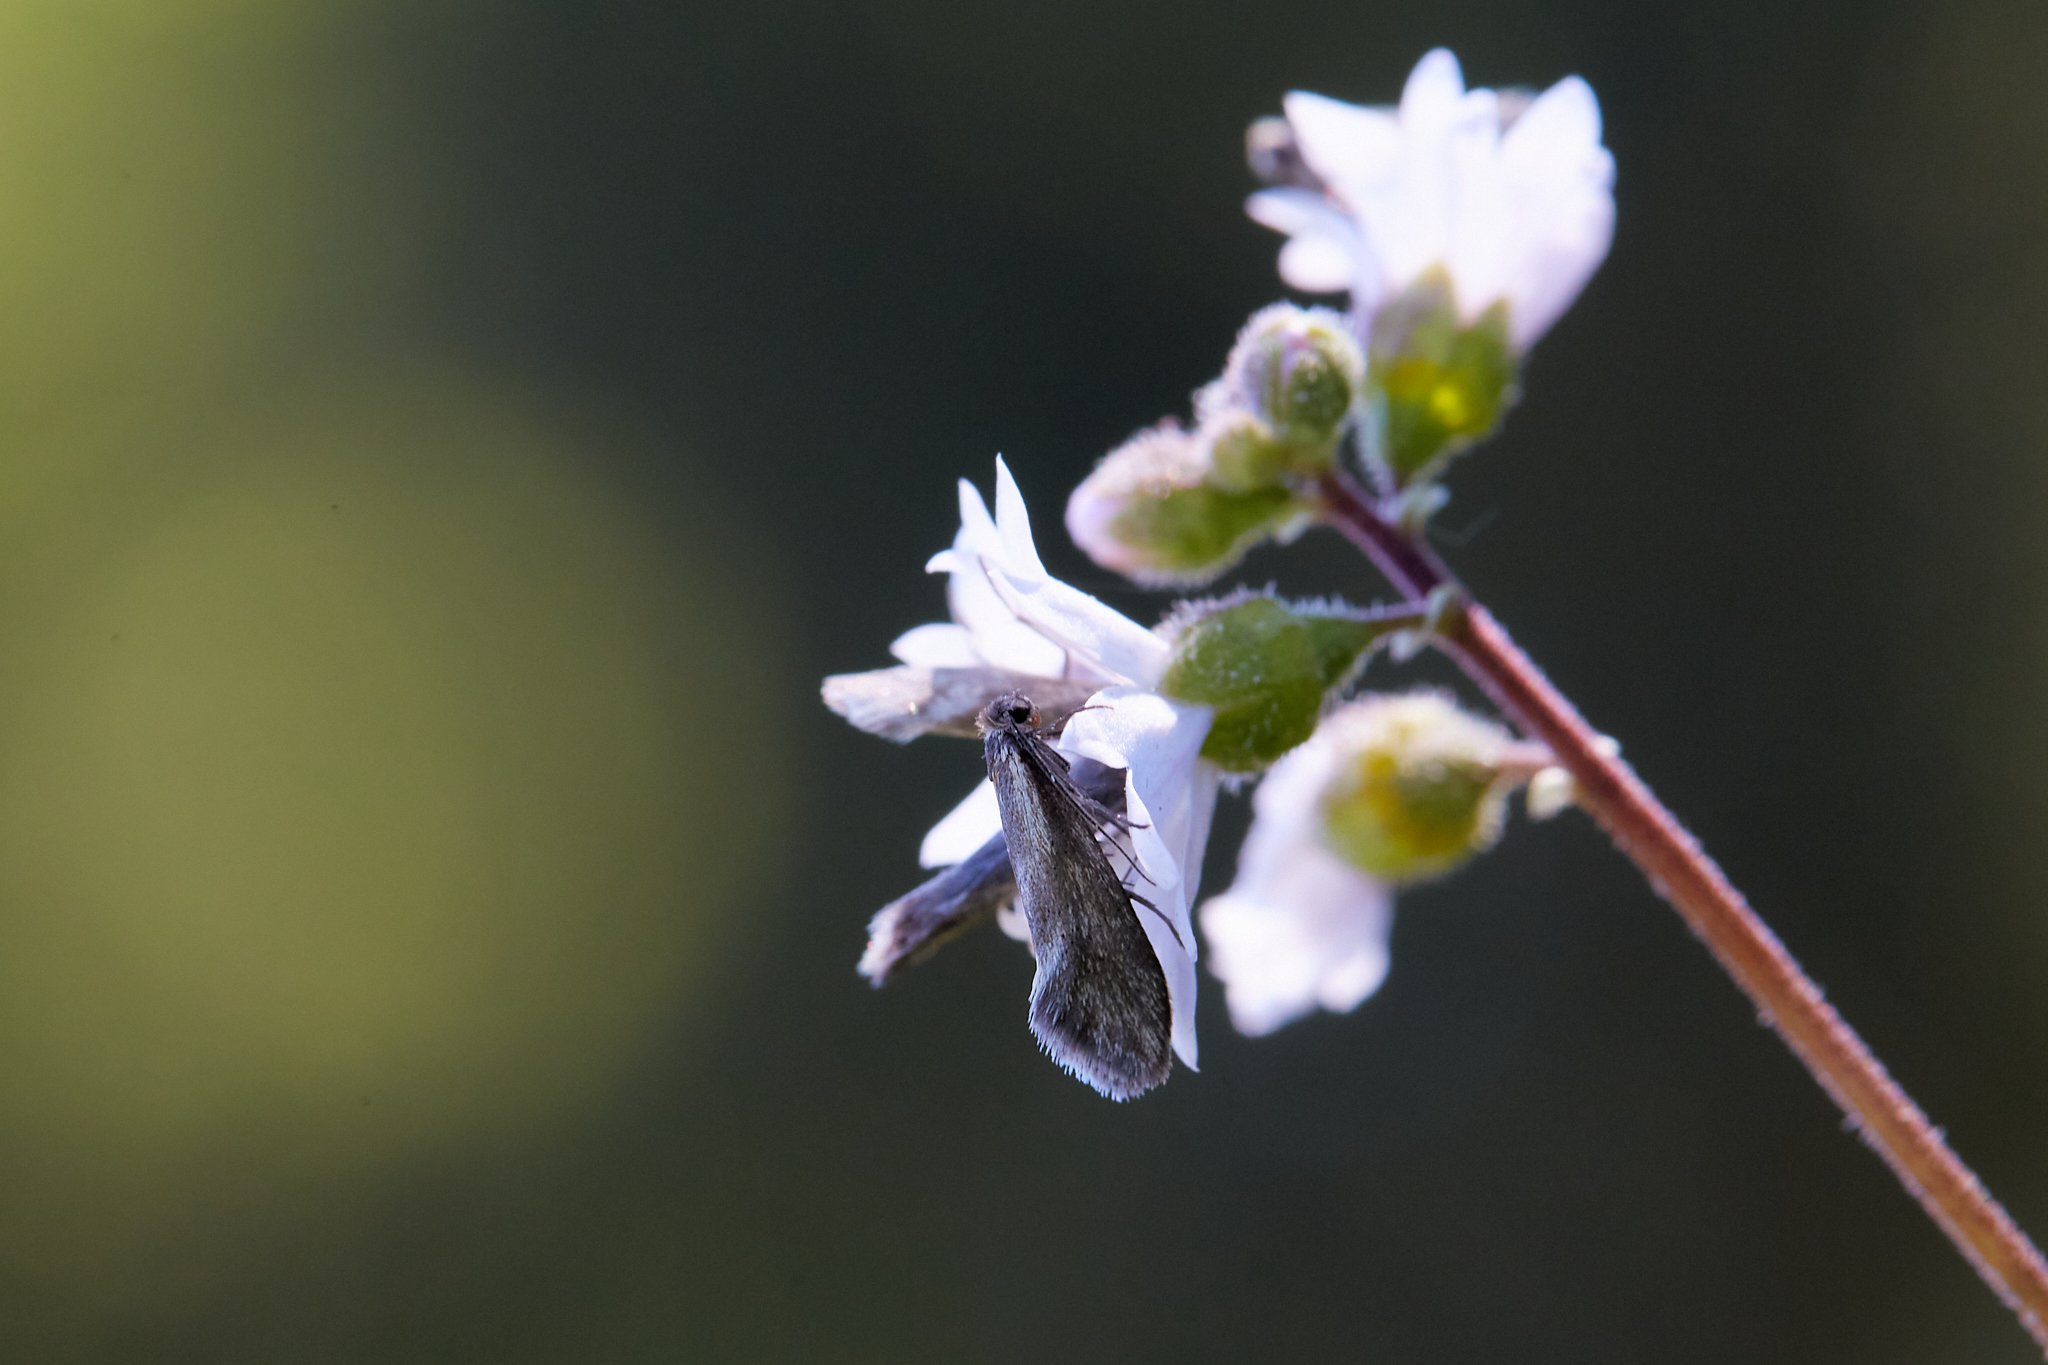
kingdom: Animalia
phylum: Arthropoda
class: Insecta
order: Lepidoptera
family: Prodoxidae
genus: Greya
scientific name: Greya obscura
